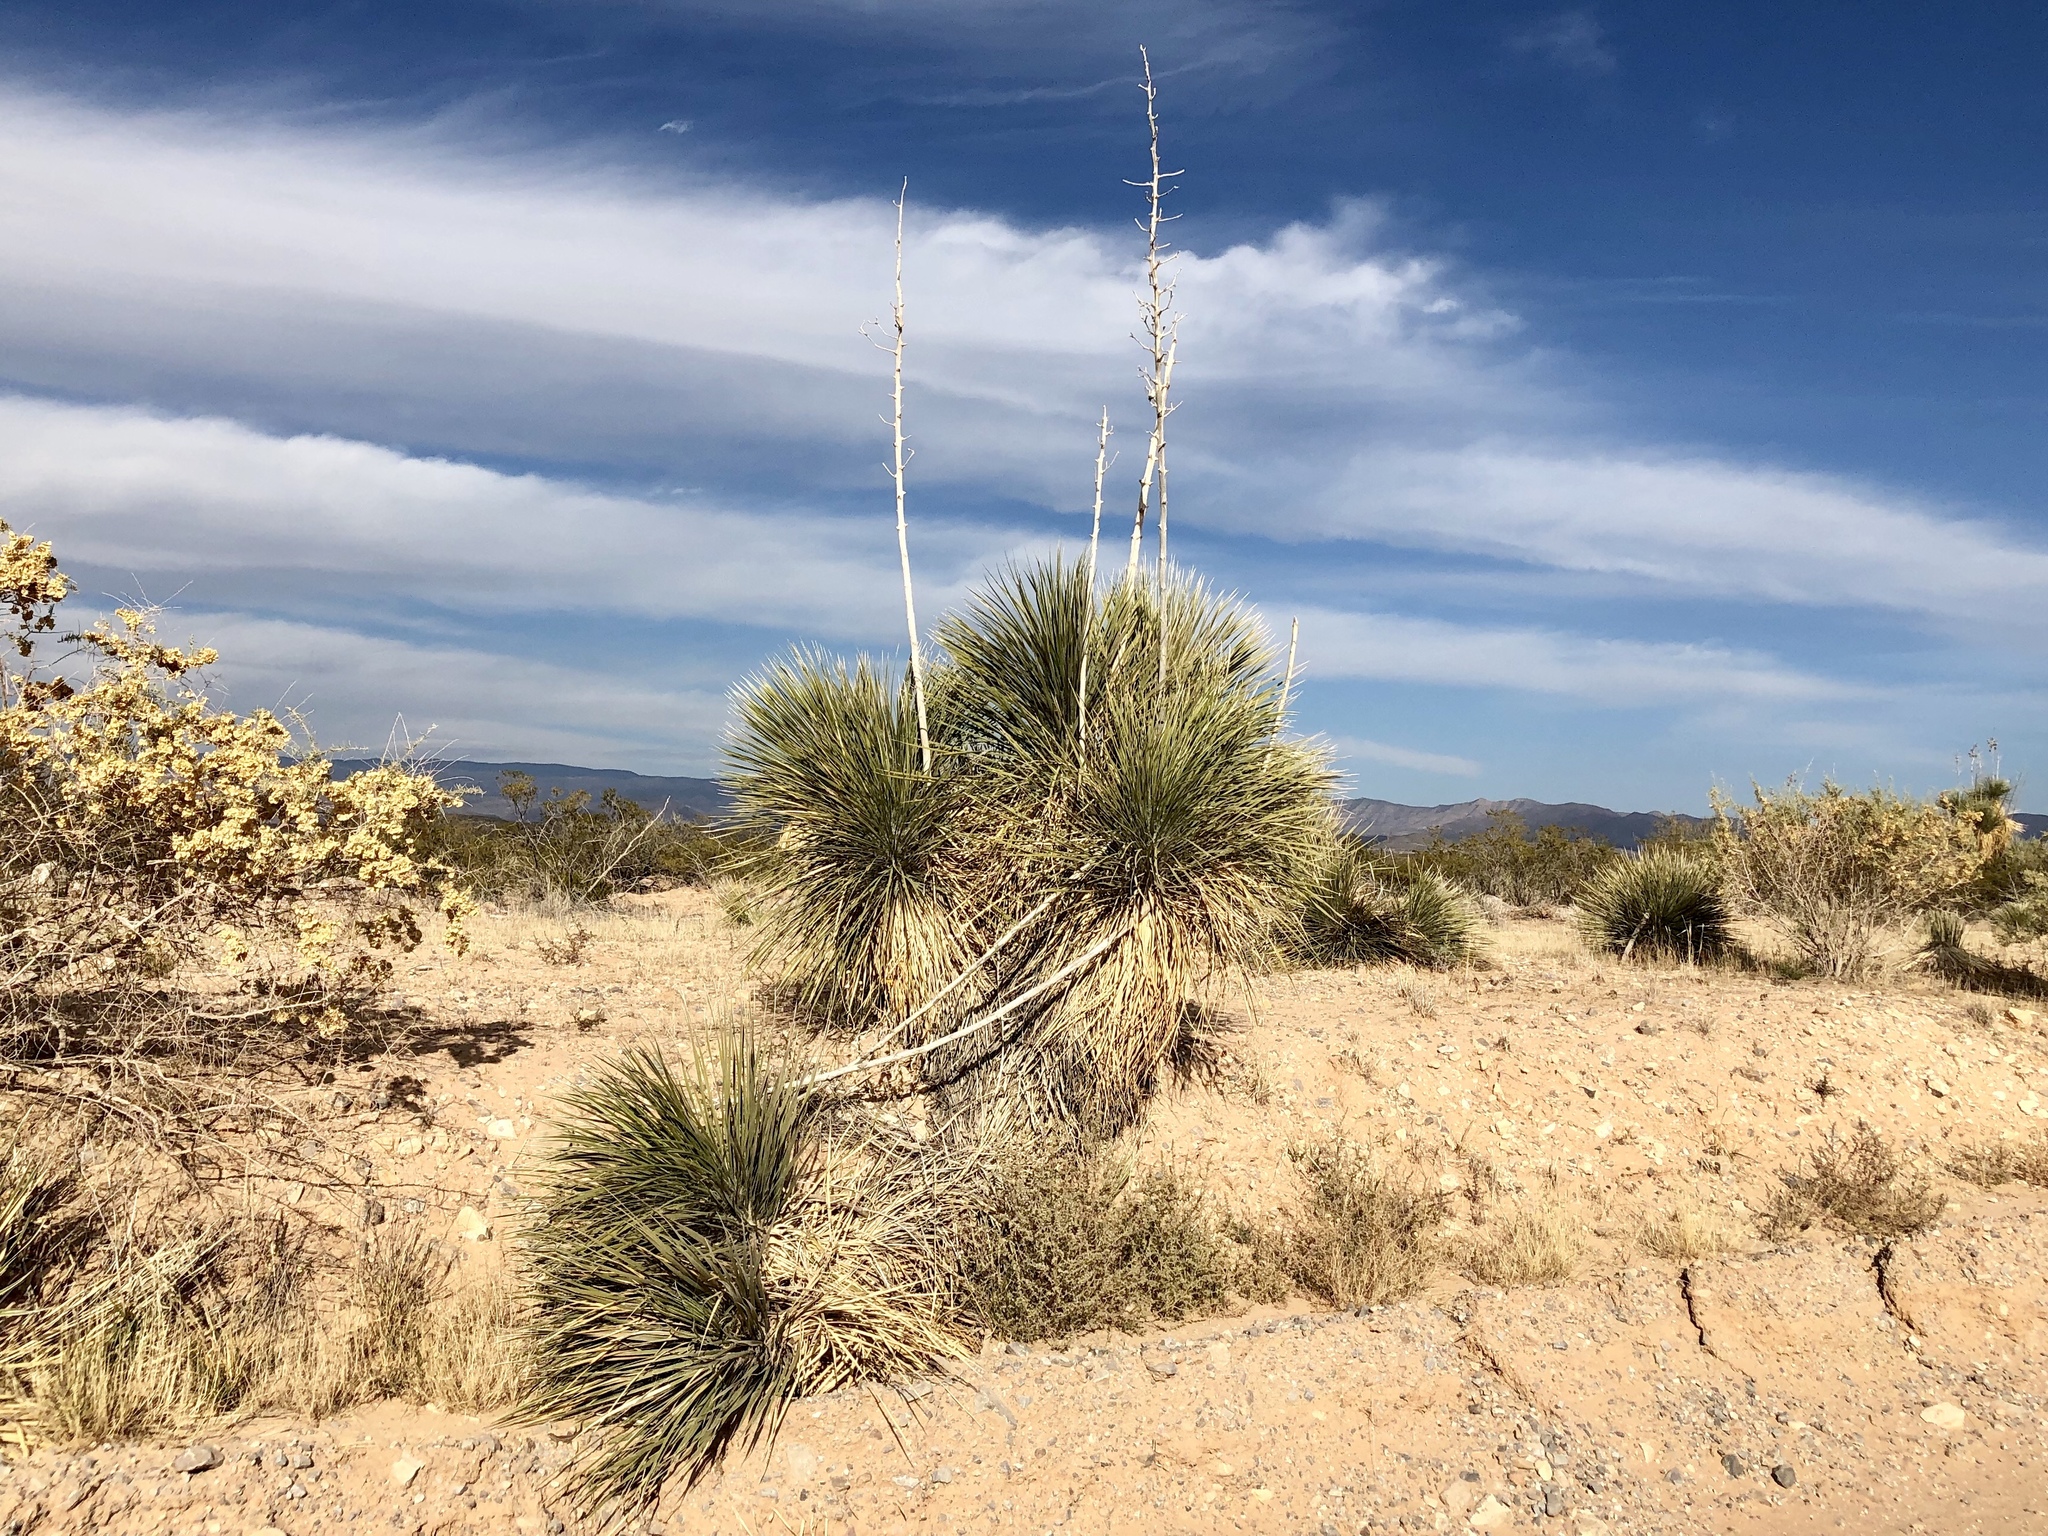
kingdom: Plantae
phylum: Tracheophyta
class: Liliopsida
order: Asparagales
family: Asparagaceae
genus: Yucca
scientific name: Yucca elata
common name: Palmella
